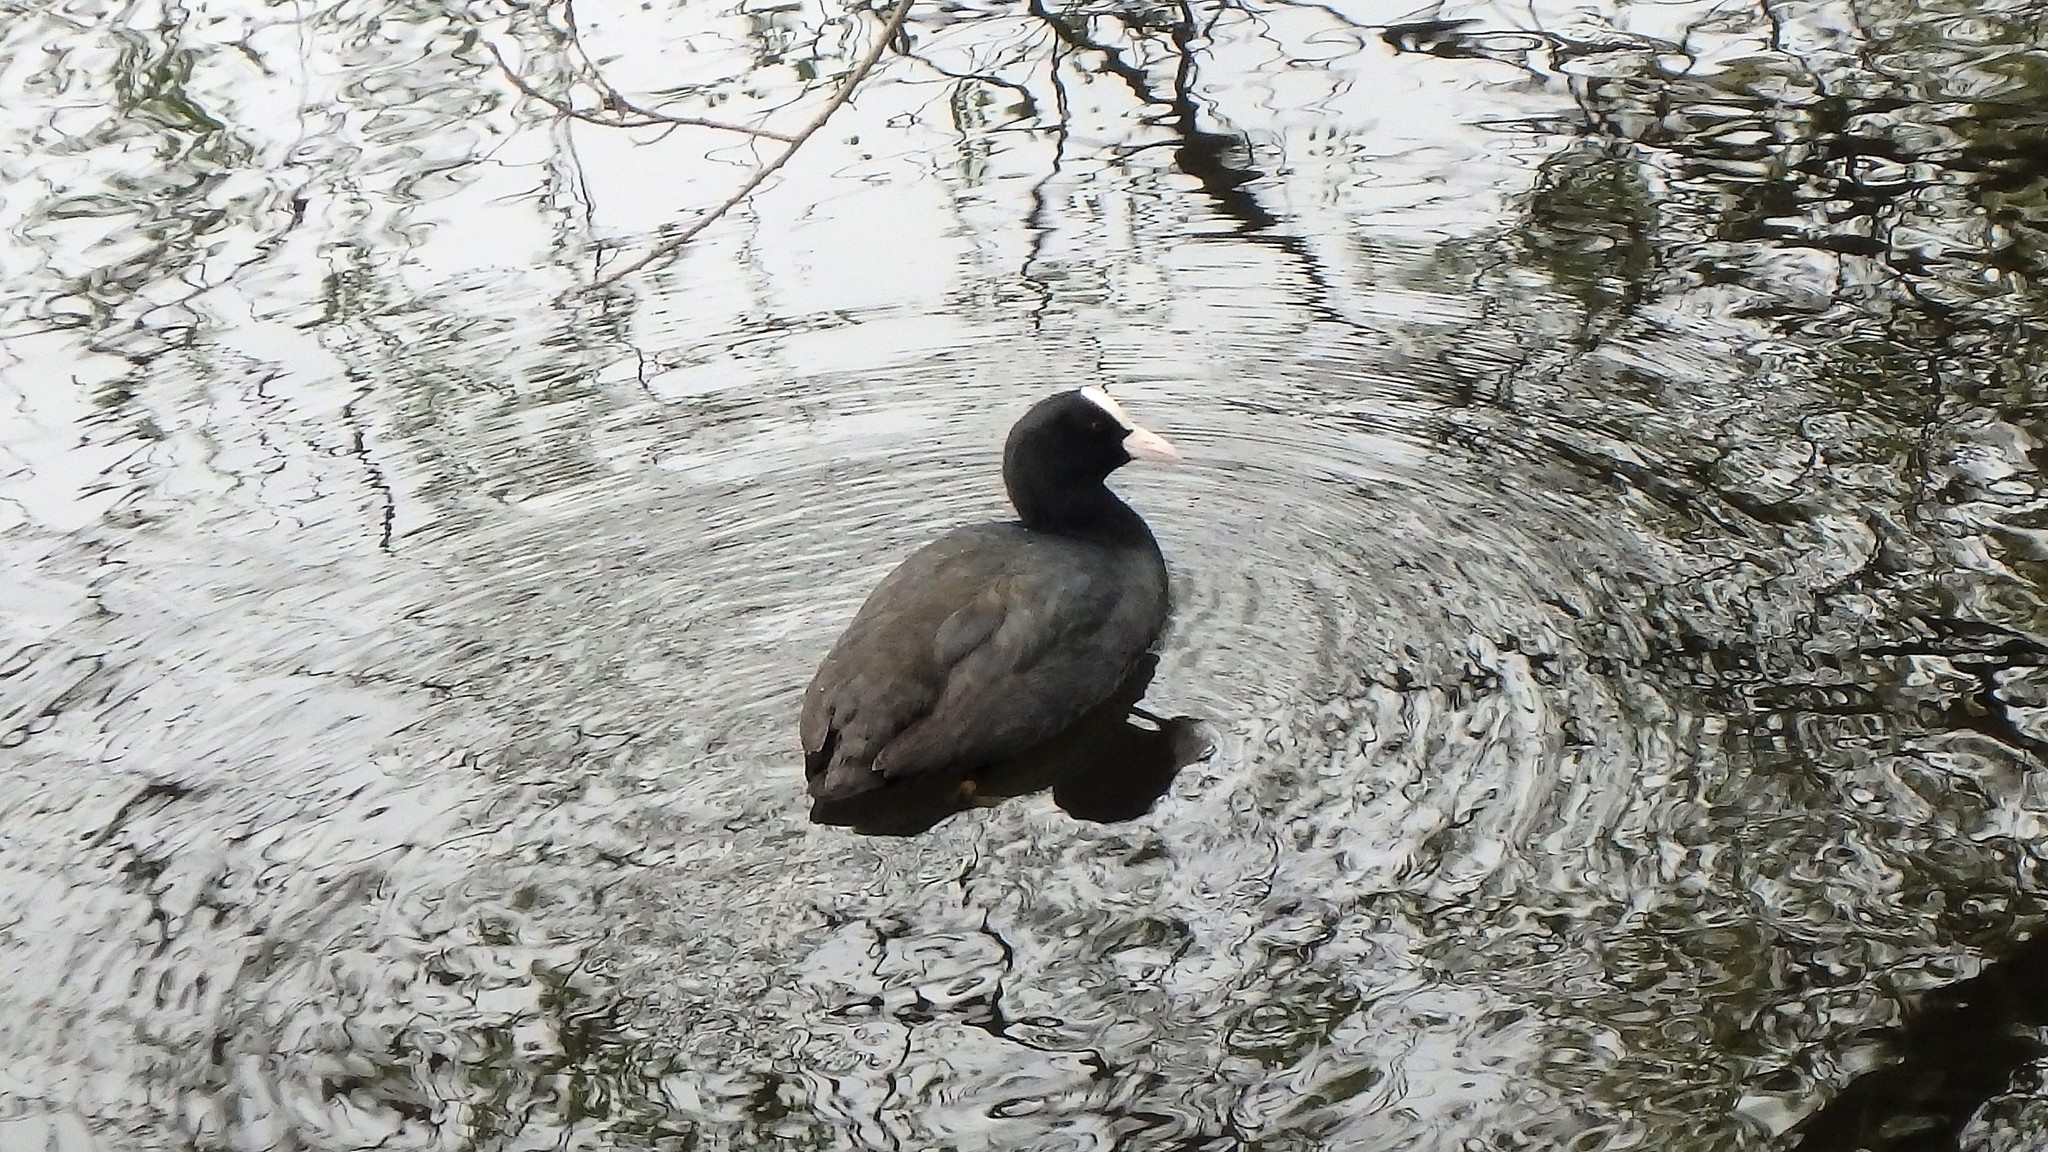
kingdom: Animalia
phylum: Chordata
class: Aves
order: Gruiformes
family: Rallidae
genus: Fulica
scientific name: Fulica atra
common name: Eurasian coot
